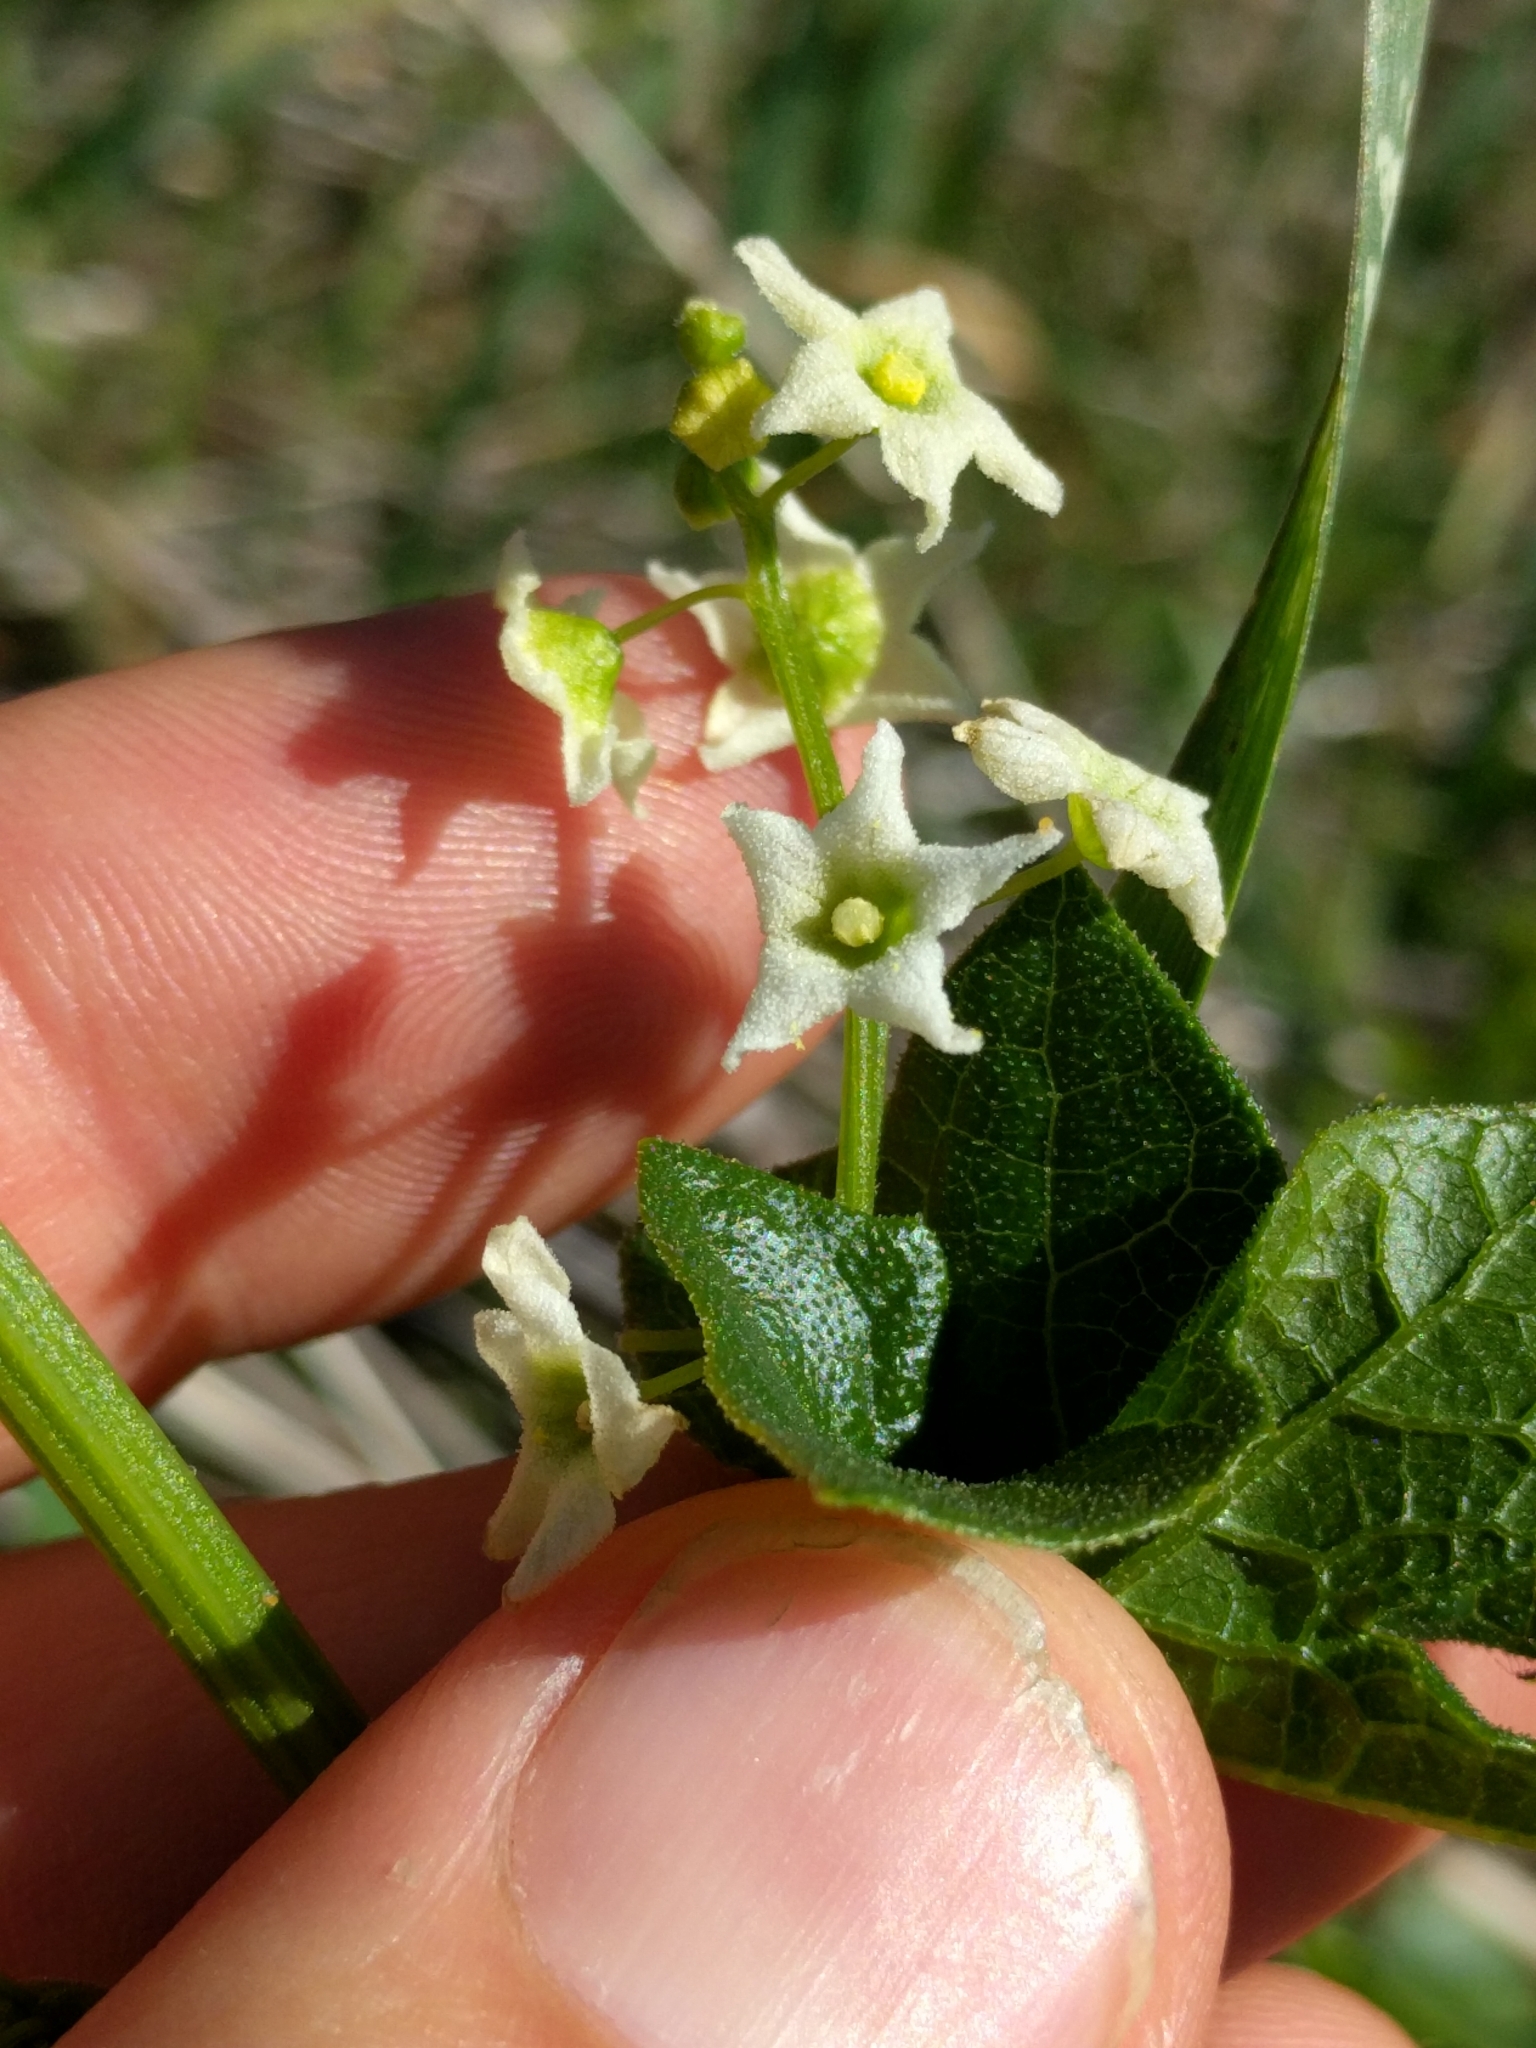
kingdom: Plantae
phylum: Tracheophyta
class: Magnoliopsida
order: Cucurbitales
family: Cucurbitaceae
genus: Marah
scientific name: Marah fabacea
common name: California manroot
